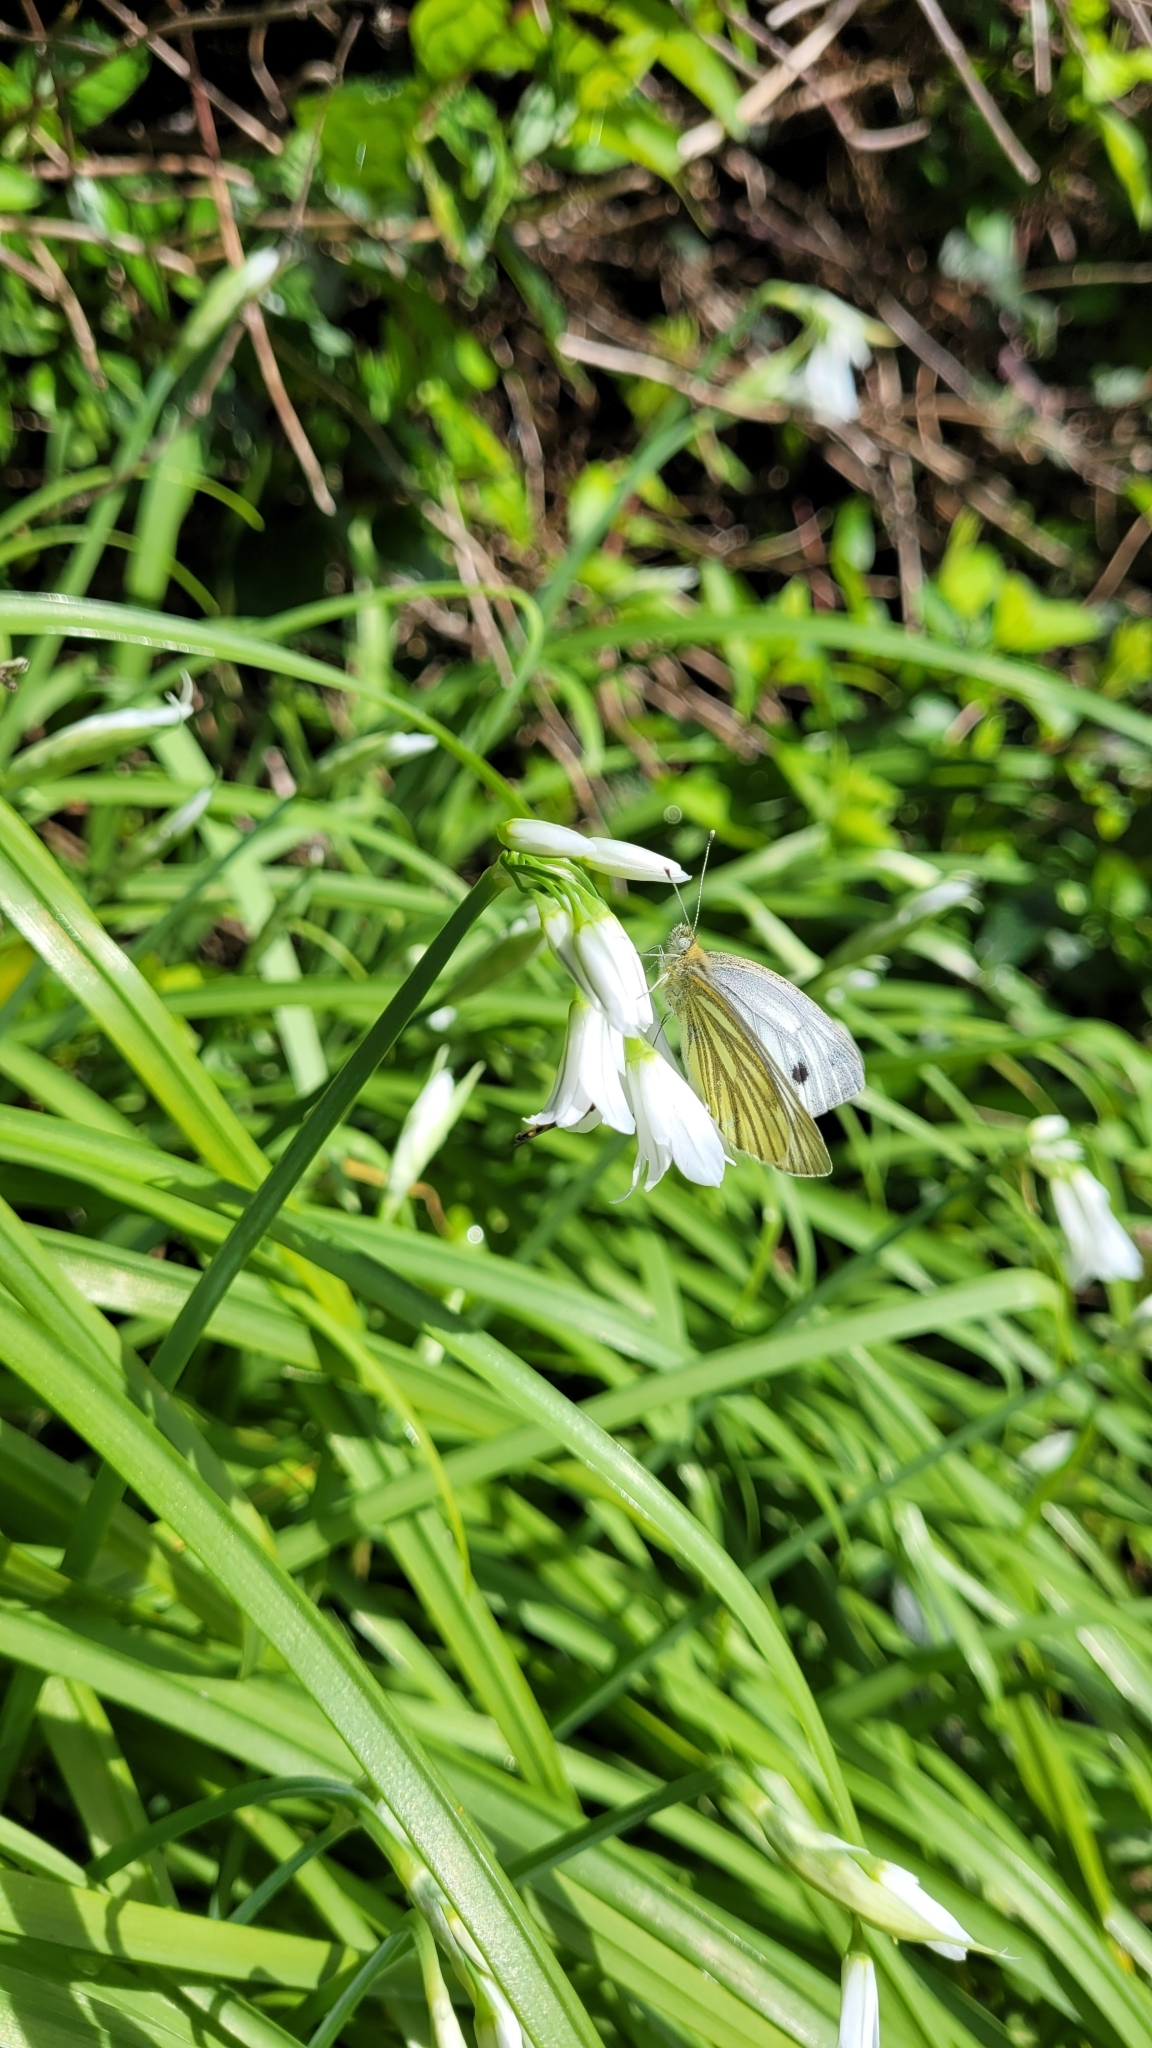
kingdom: Animalia
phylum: Arthropoda
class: Insecta
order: Lepidoptera
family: Pieridae
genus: Pieris
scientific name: Pieris napi
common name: Green-veined white
